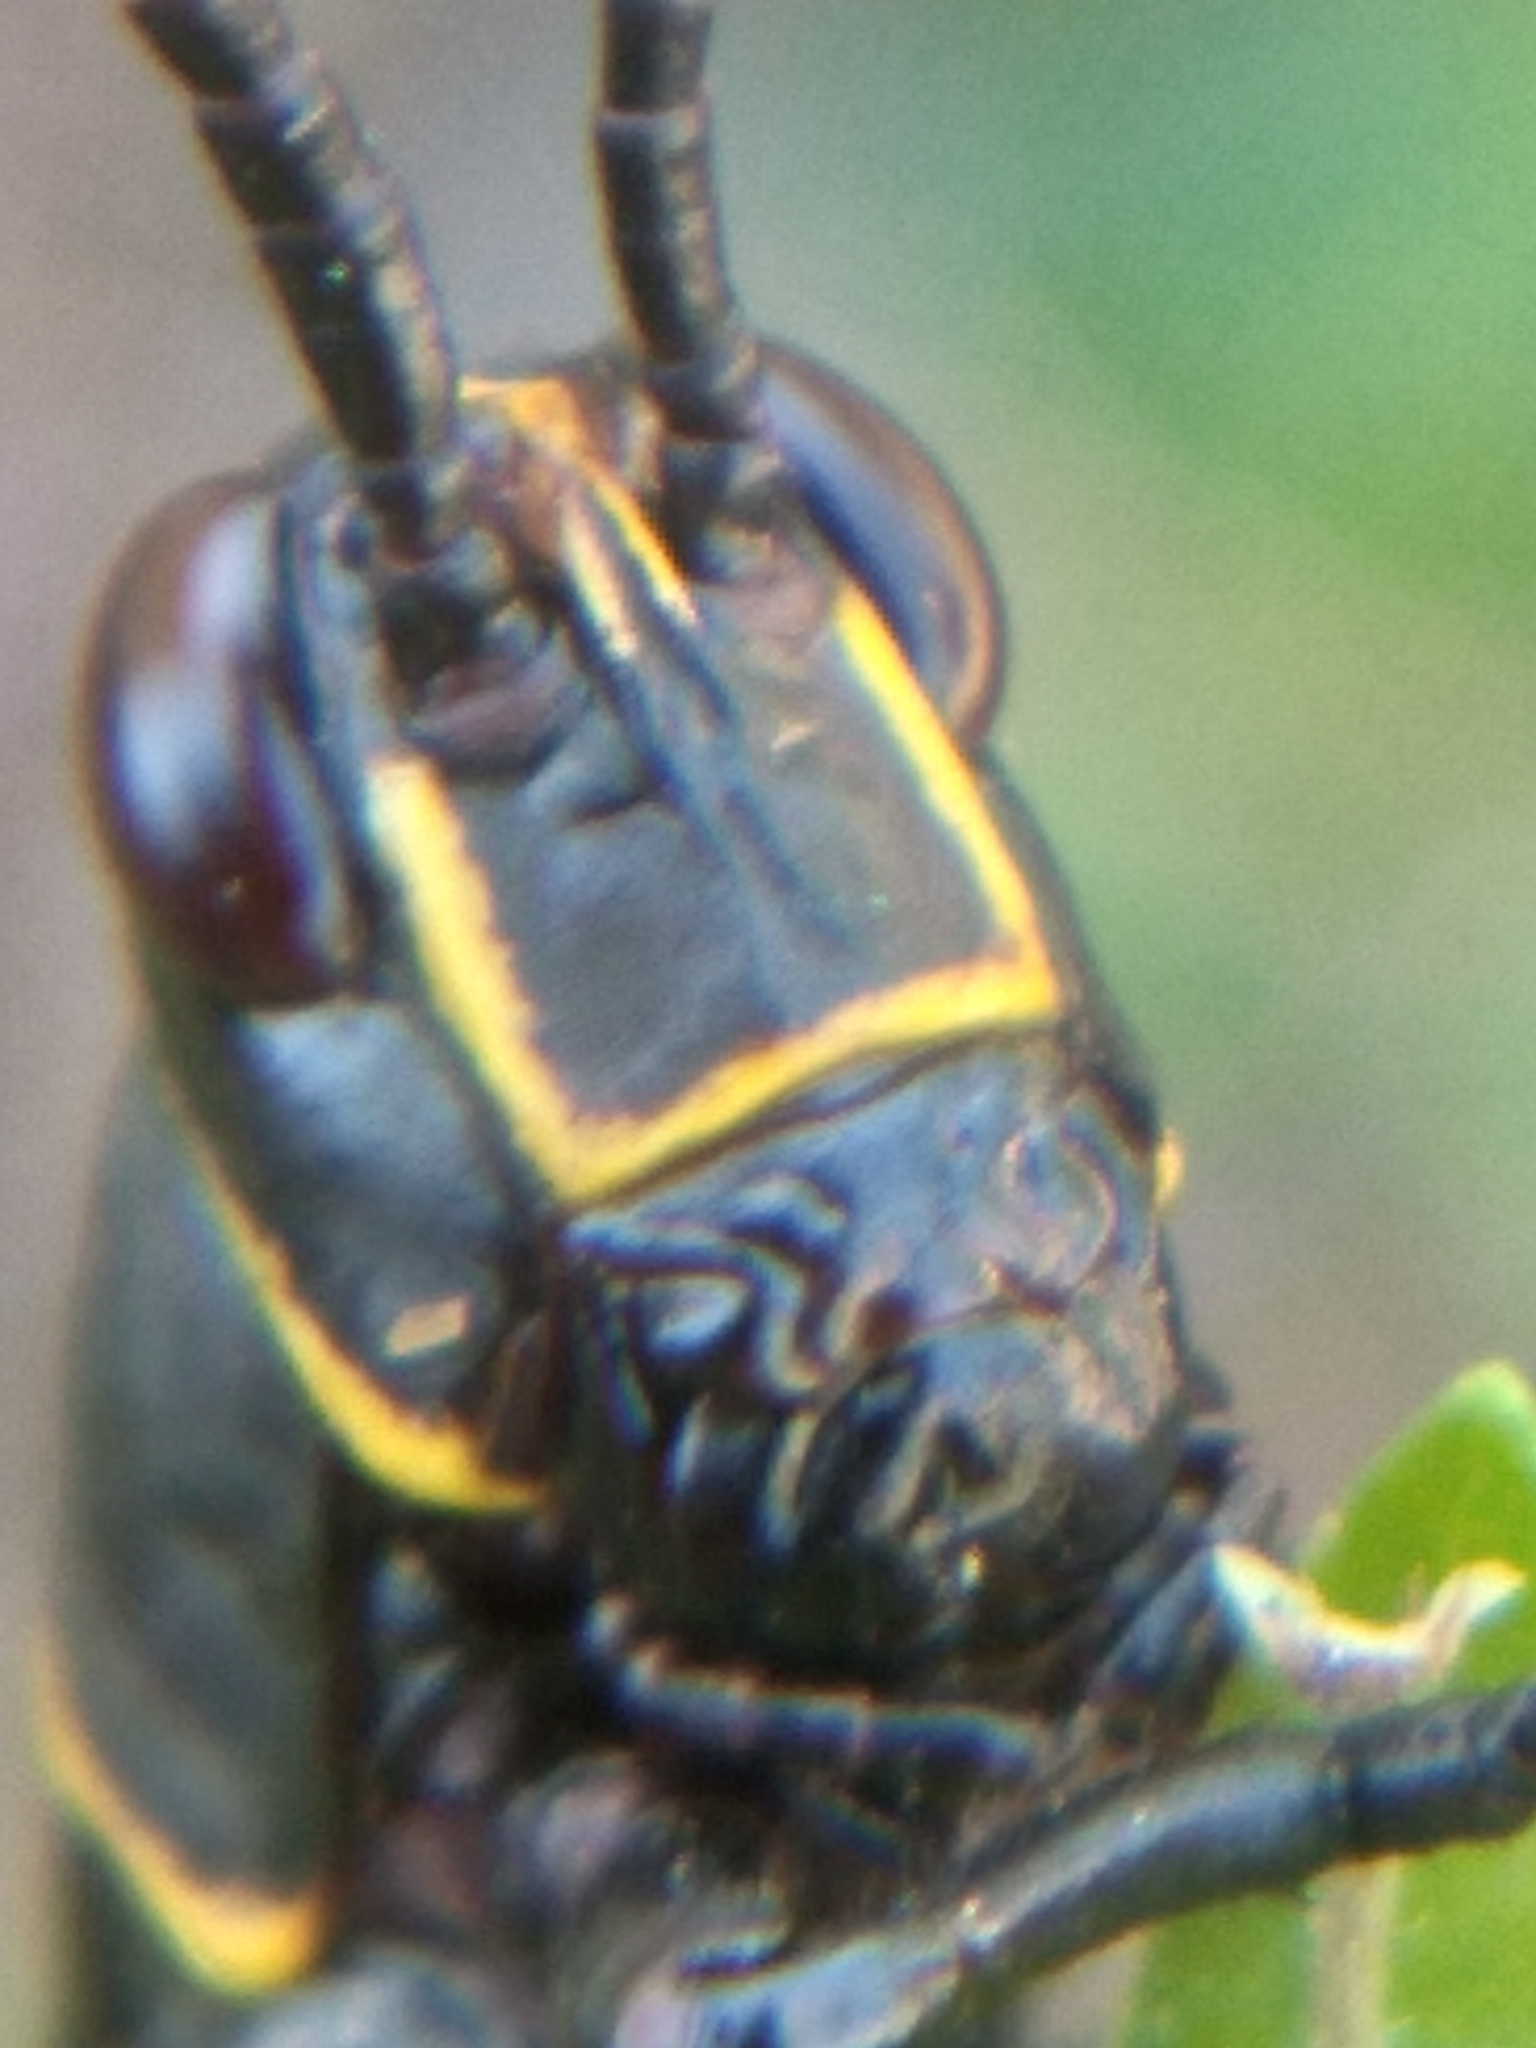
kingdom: Animalia
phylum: Arthropoda
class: Insecta
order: Orthoptera
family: Romaleidae
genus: Romalea
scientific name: Romalea microptera
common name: Eastern lubber grasshopper
